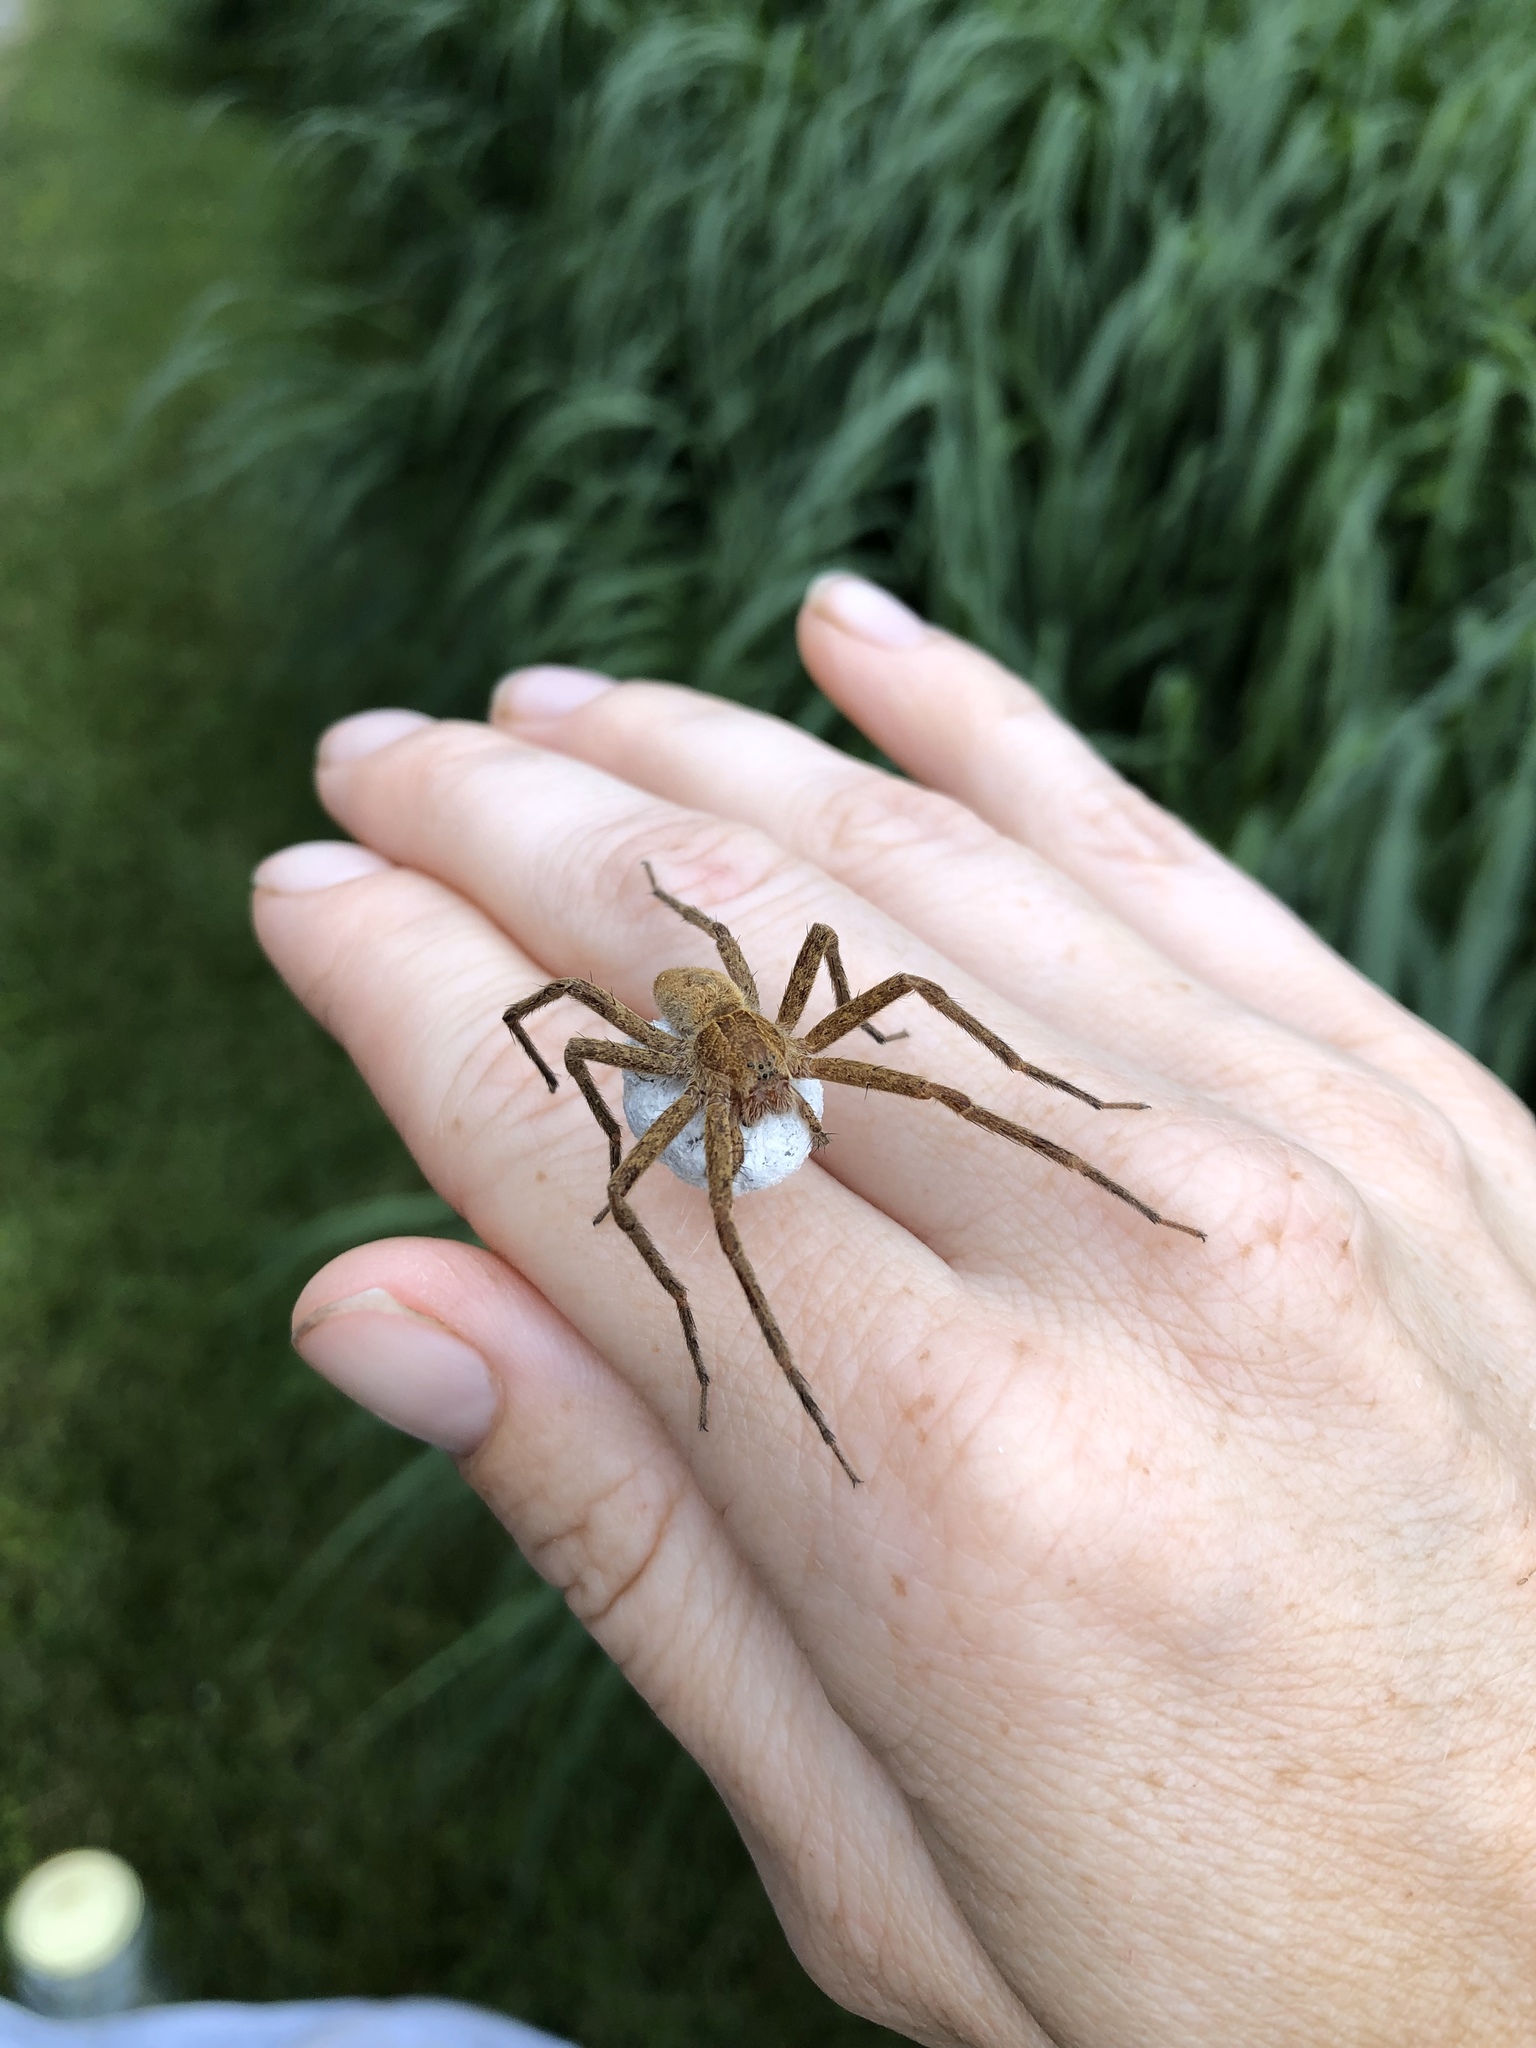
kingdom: Animalia
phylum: Arthropoda
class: Arachnida
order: Araneae
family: Pisauridae
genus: Pisaurina
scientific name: Pisaurina mira
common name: American nursery web spider
